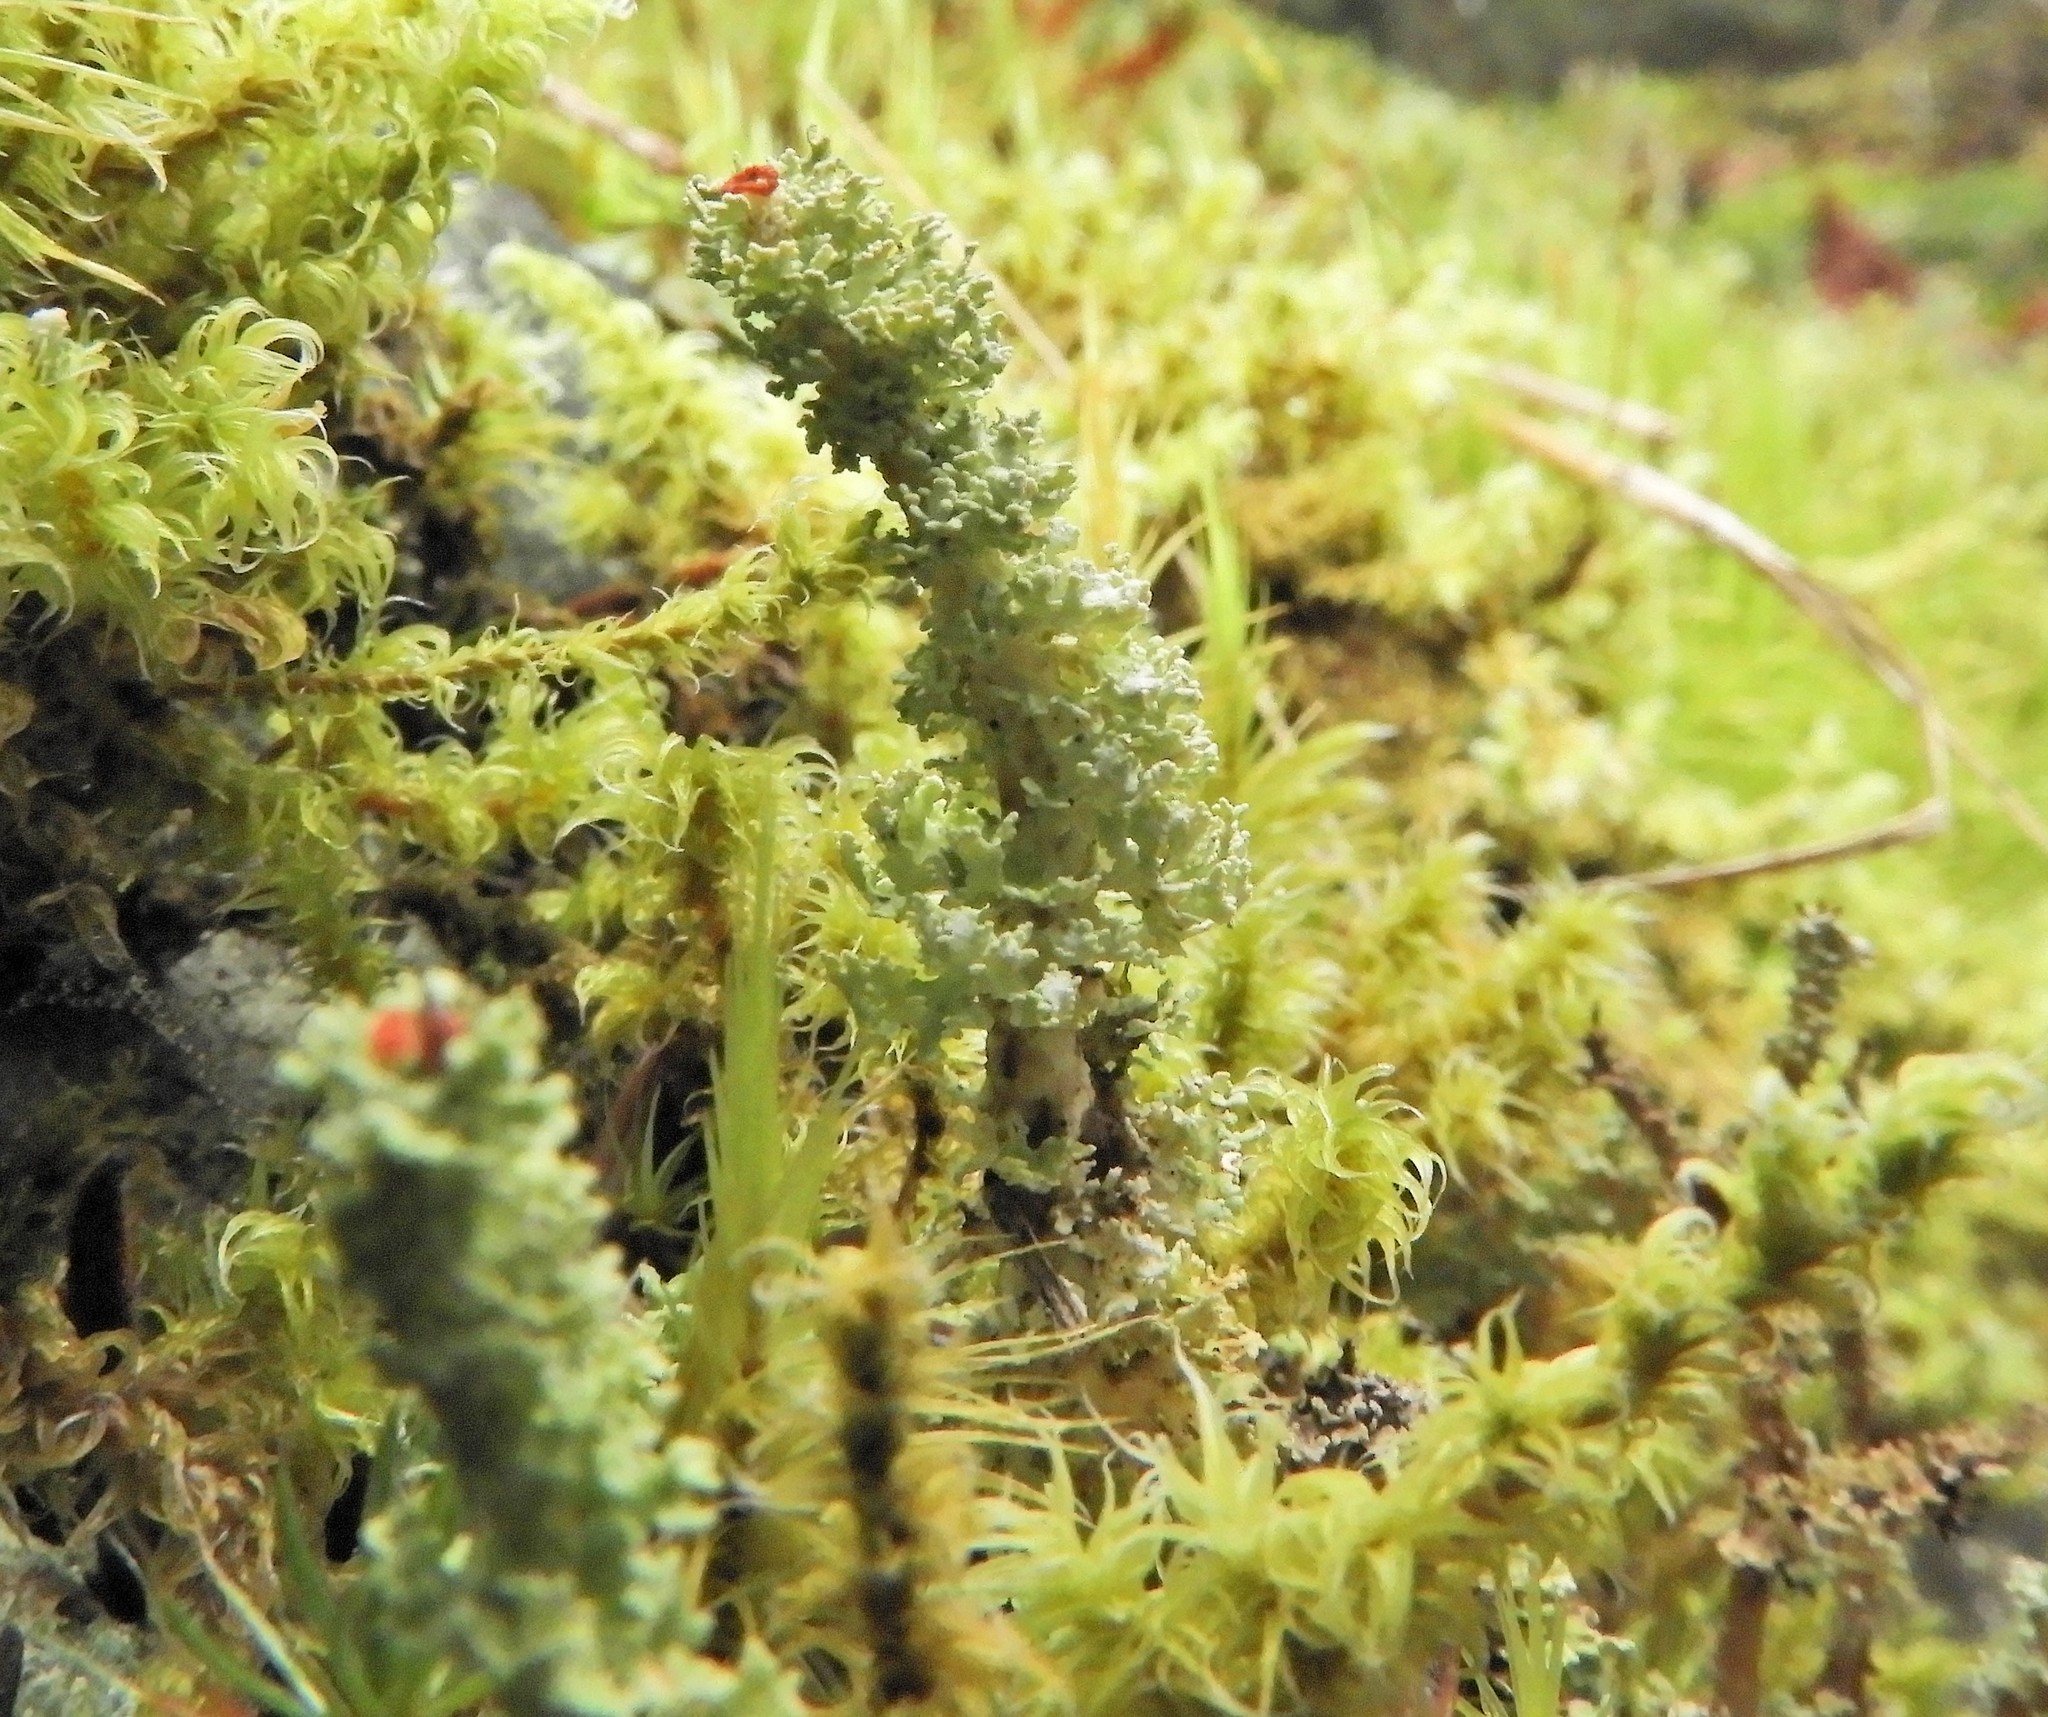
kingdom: Fungi
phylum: Ascomycota
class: Lecanoromycetes
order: Lecanorales
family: Cladoniaceae
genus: Cladonia
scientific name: Cladonia bellidiflora
